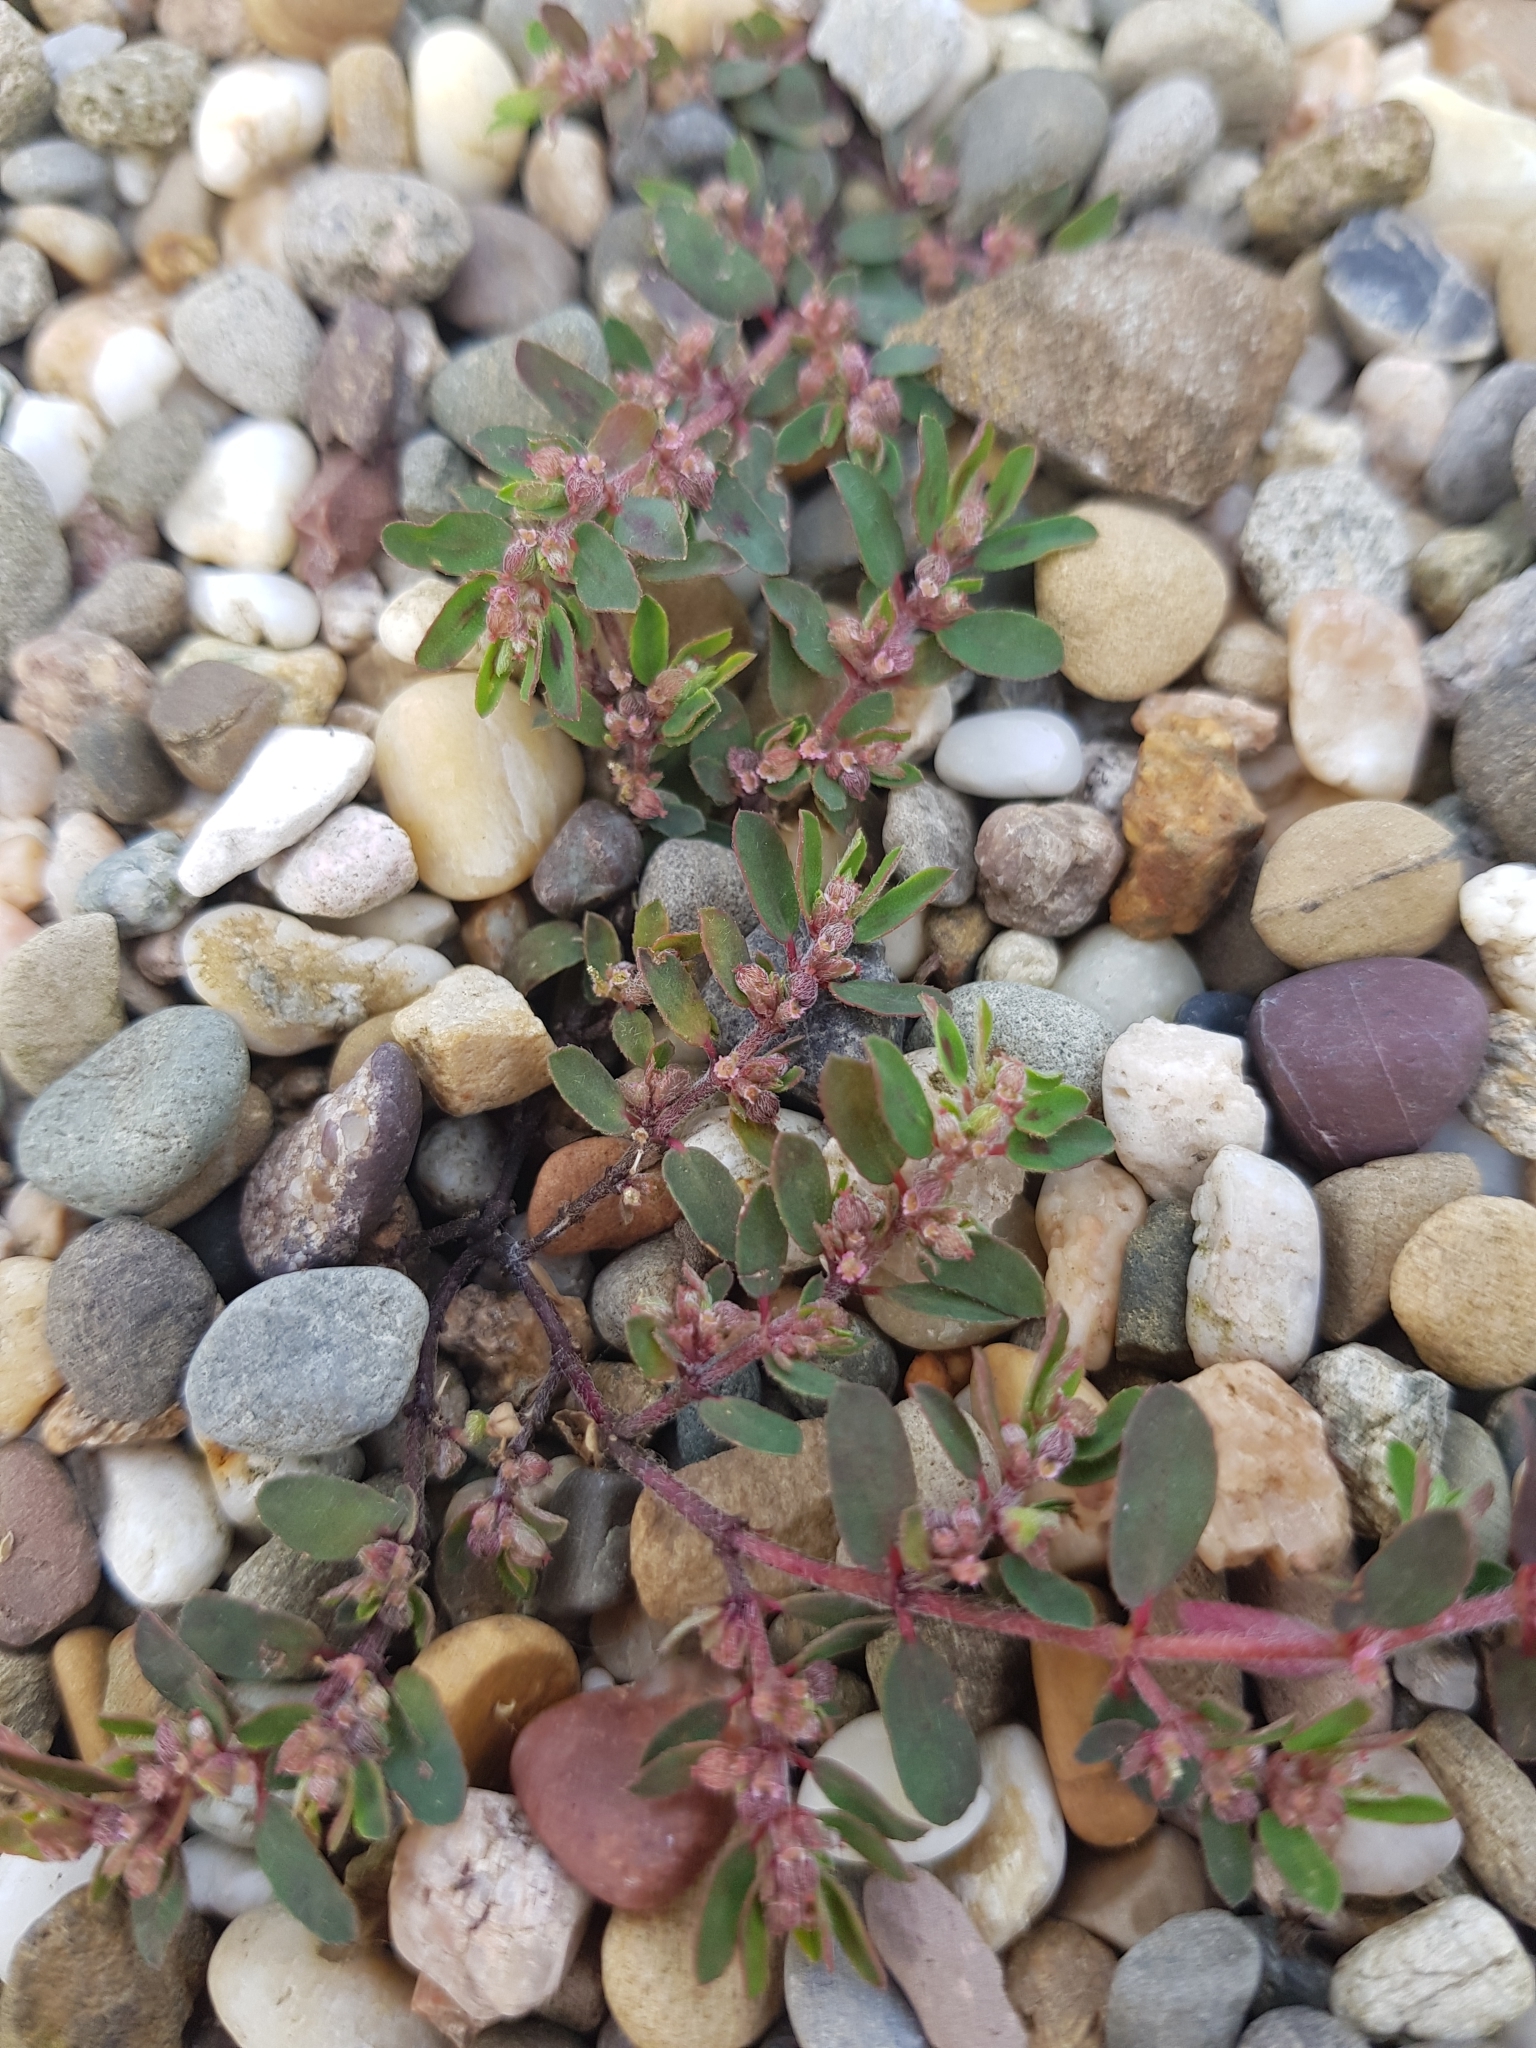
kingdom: Plantae
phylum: Tracheophyta
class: Magnoliopsida
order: Malpighiales
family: Euphorbiaceae
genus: Euphorbia
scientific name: Euphorbia maculata
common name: Spotted spurge
